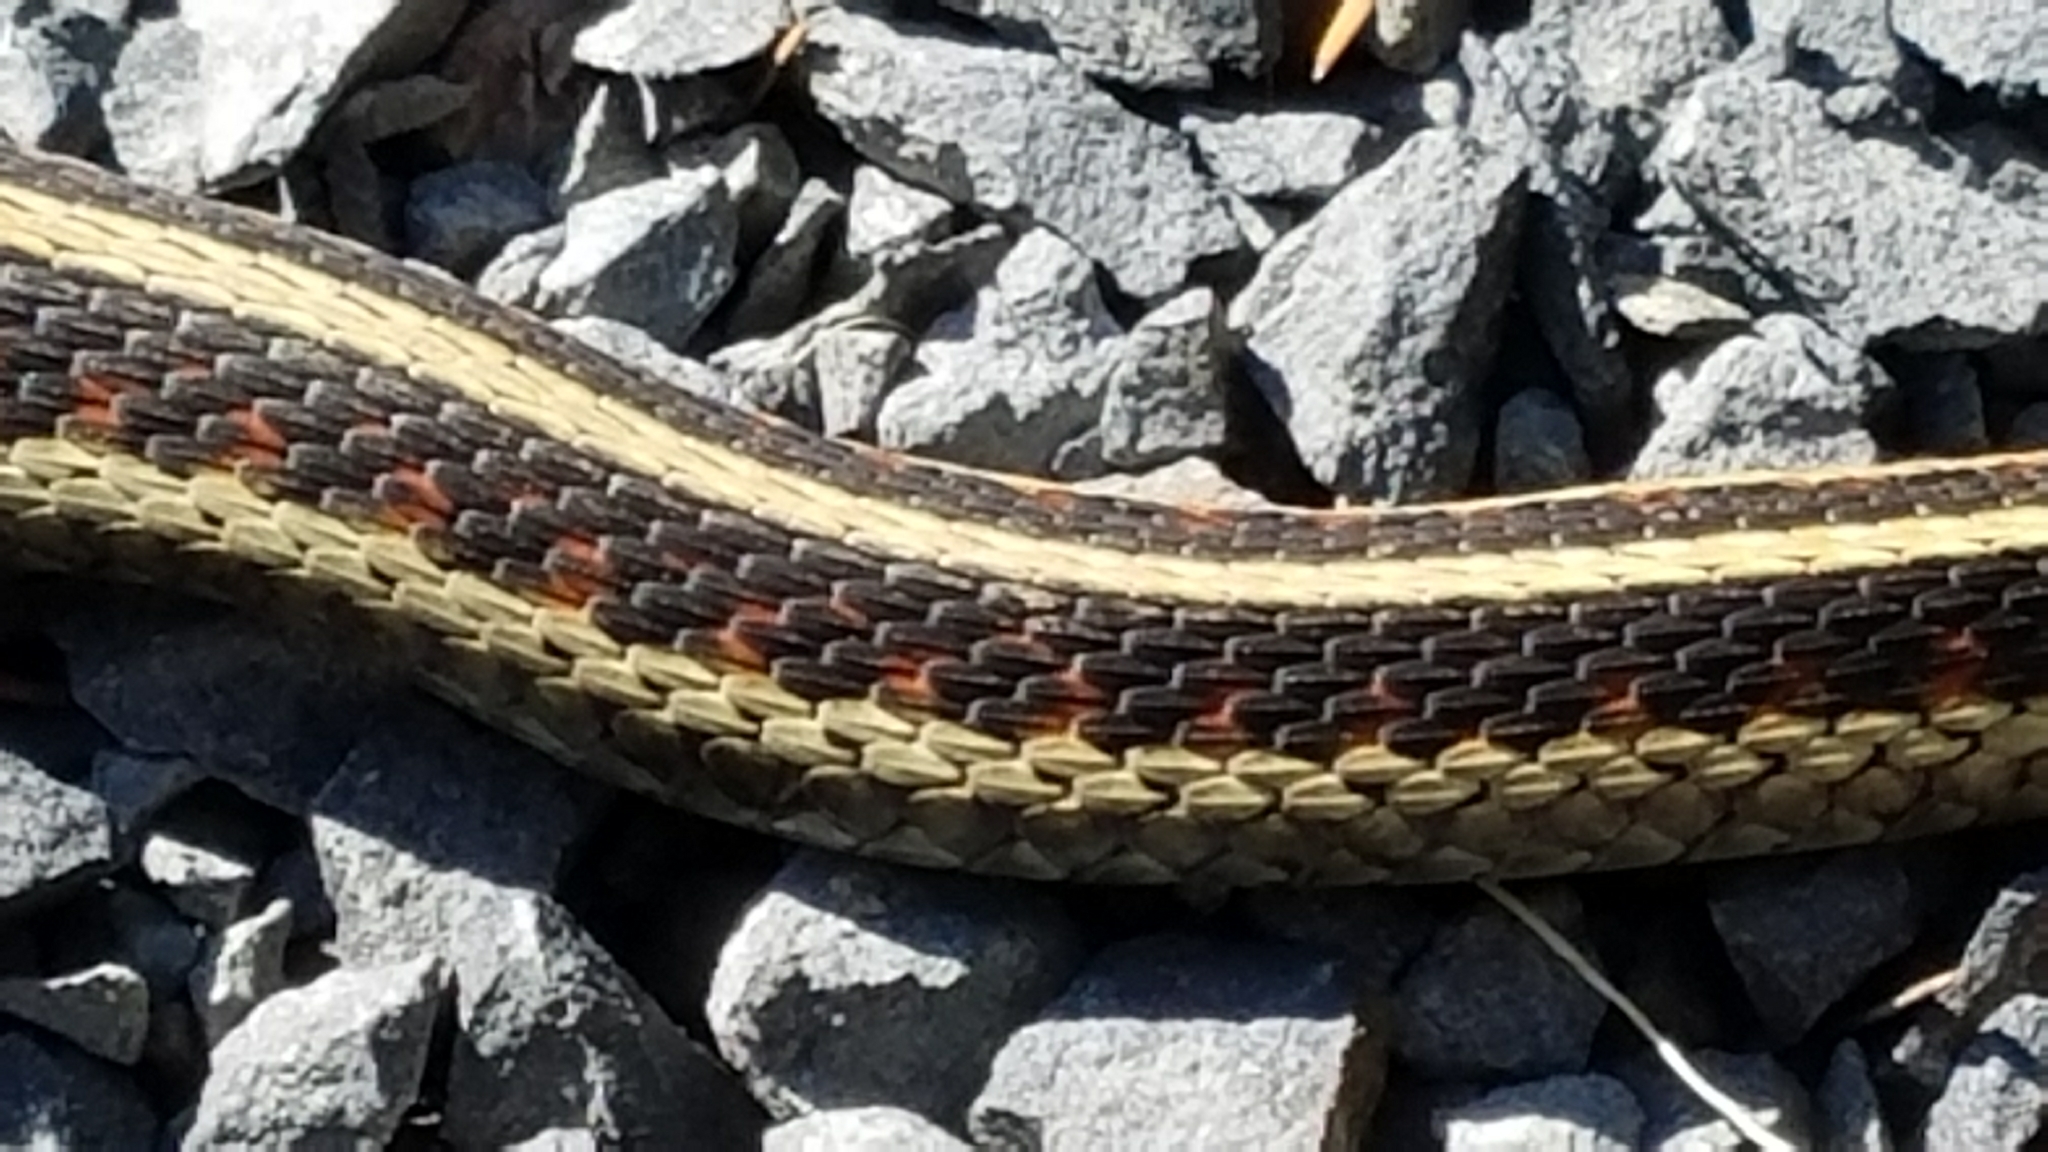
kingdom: Animalia
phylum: Chordata
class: Squamata
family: Colubridae
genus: Thamnophis
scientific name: Thamnophis sirtalis
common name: Common garter snake
